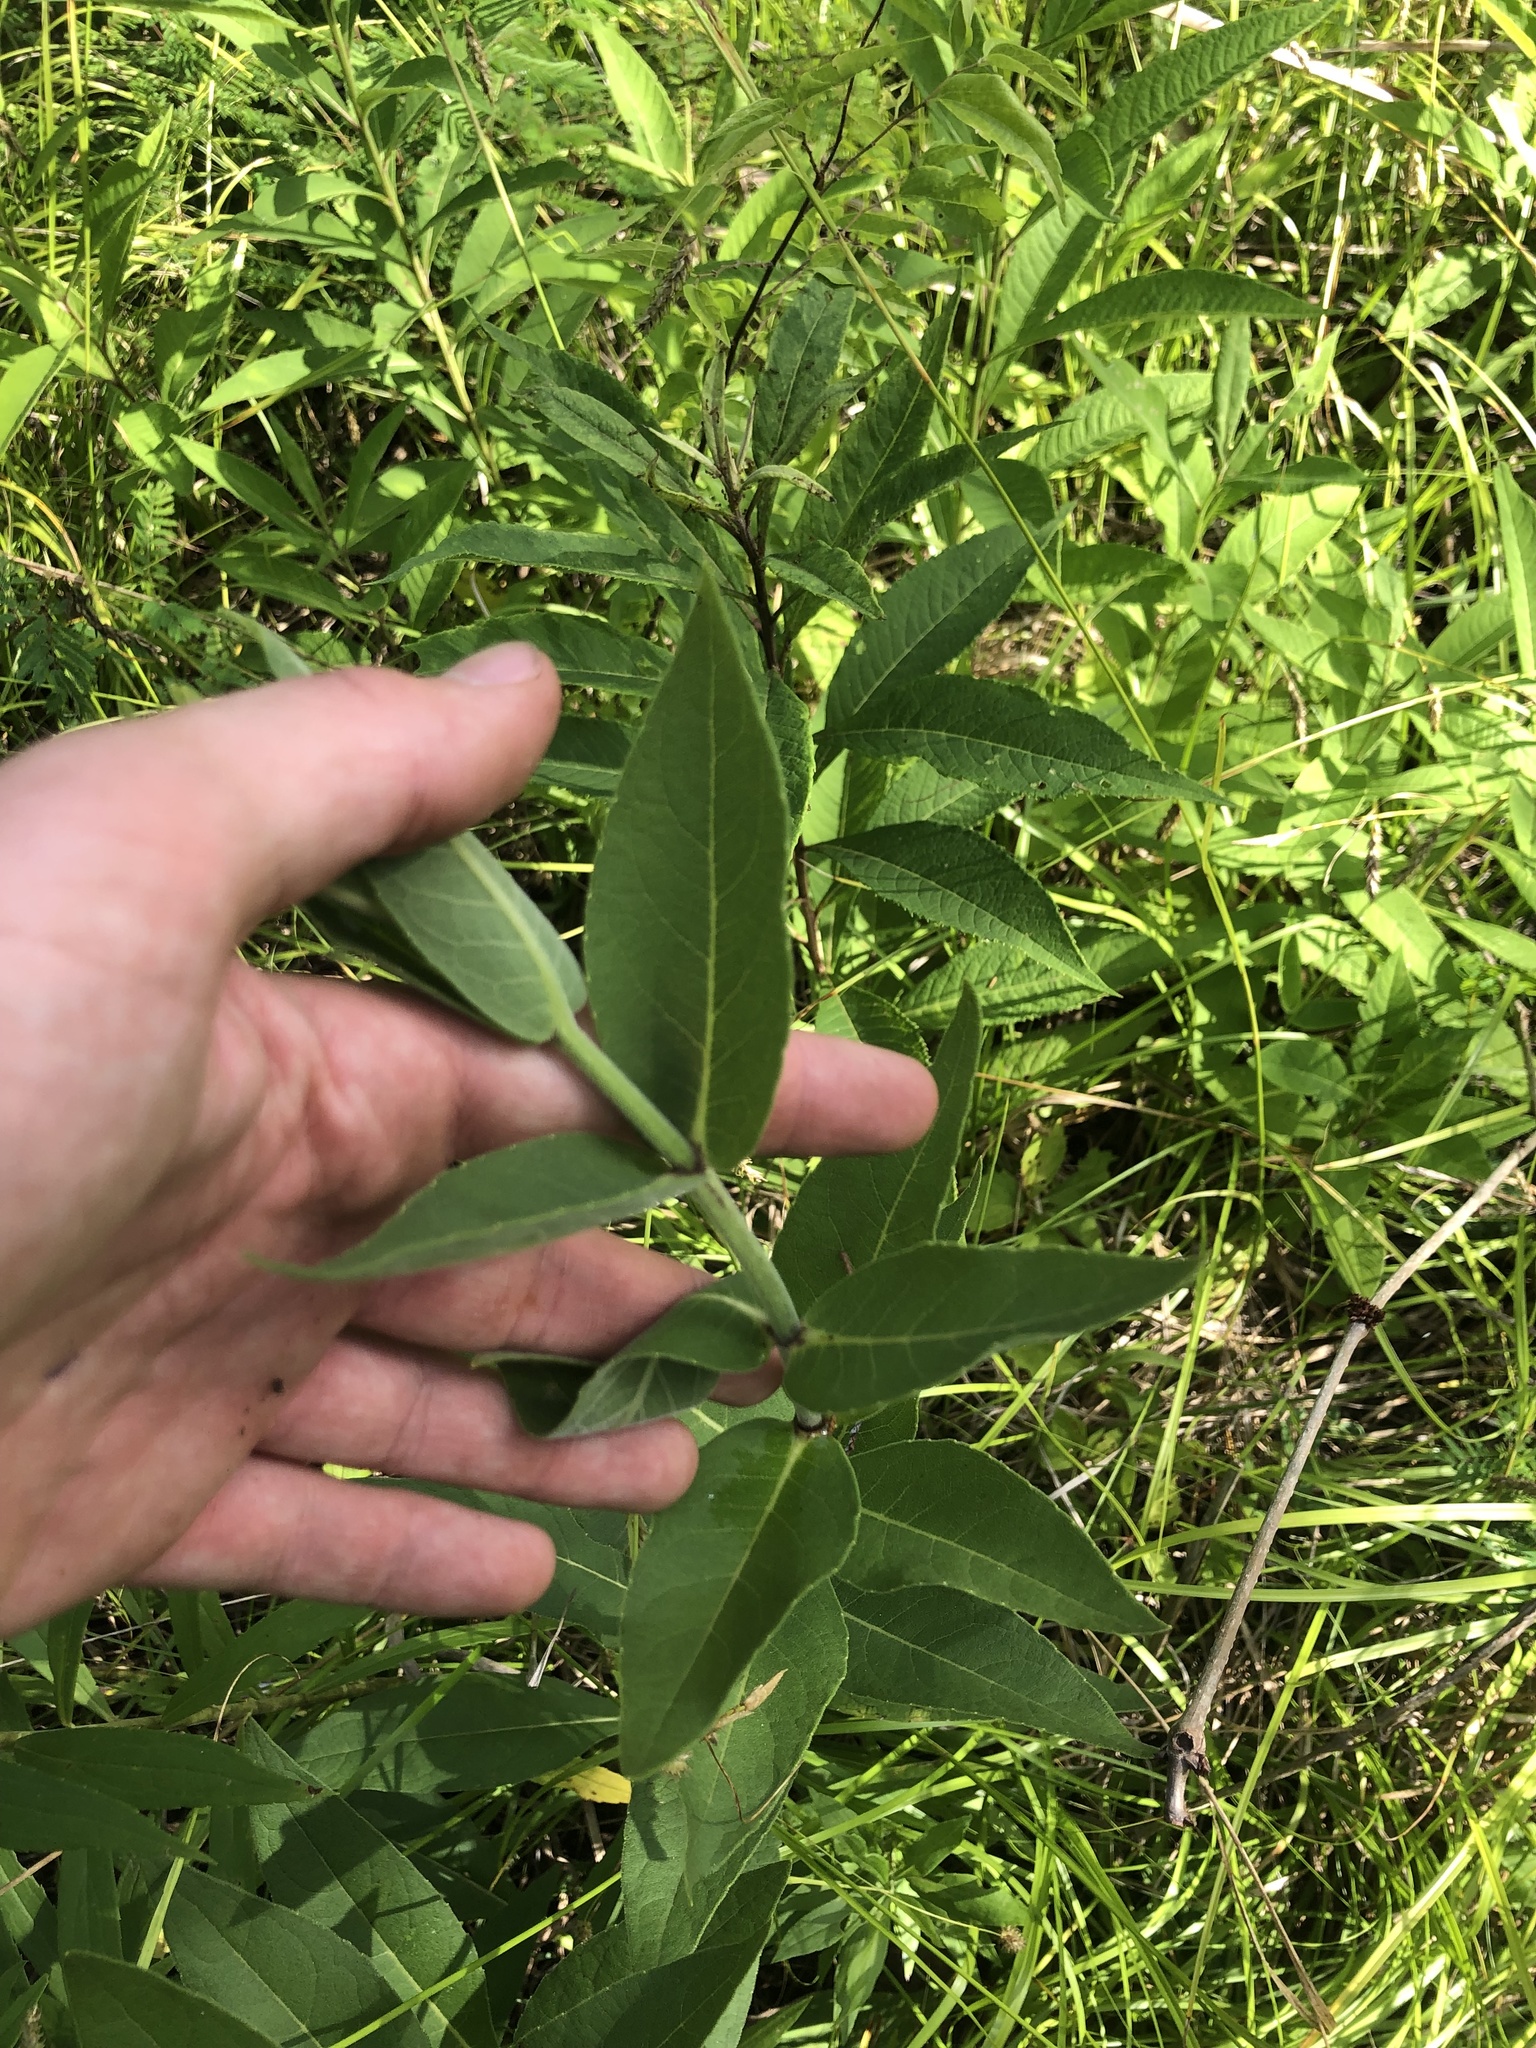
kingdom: Plantae
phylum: Tracheophyta
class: Magnoliopsida
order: Asterales
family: Asteraceae
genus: Silphium
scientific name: Silphium integrifolium
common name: Whole-leaf rosinweed
